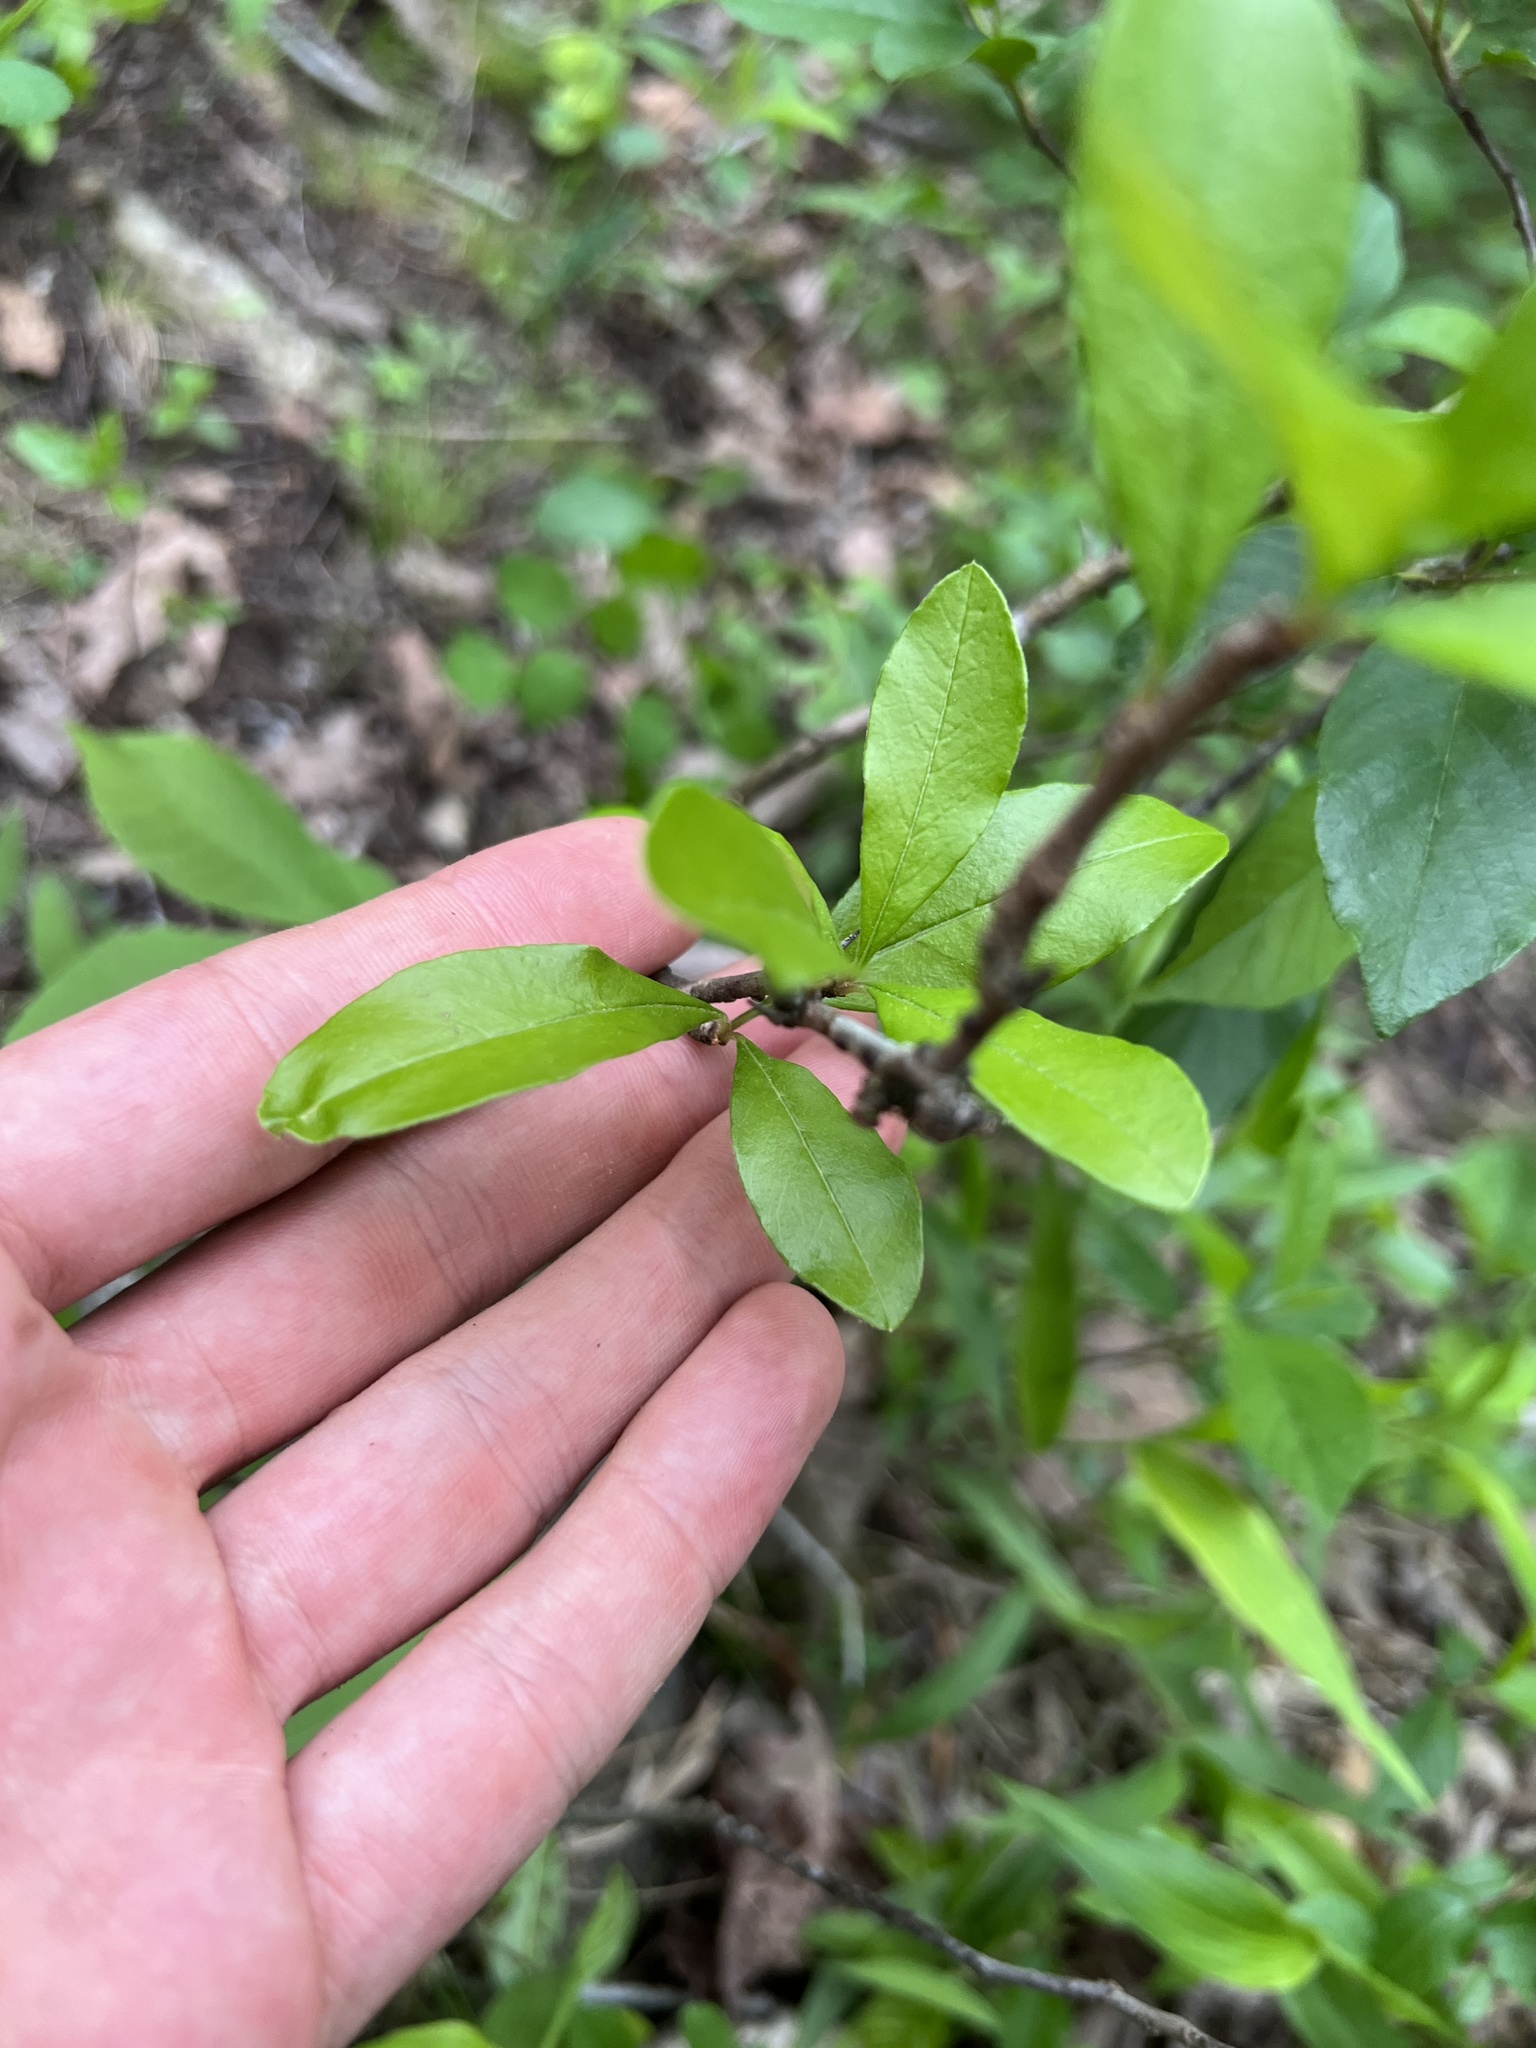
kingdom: Plantae
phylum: Tracheophyta
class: Magnoliopsida
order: Ericales
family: Sapotaceae
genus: Sideroxylon
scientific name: Sideroxylon lanuginosum
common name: Chittamwood
